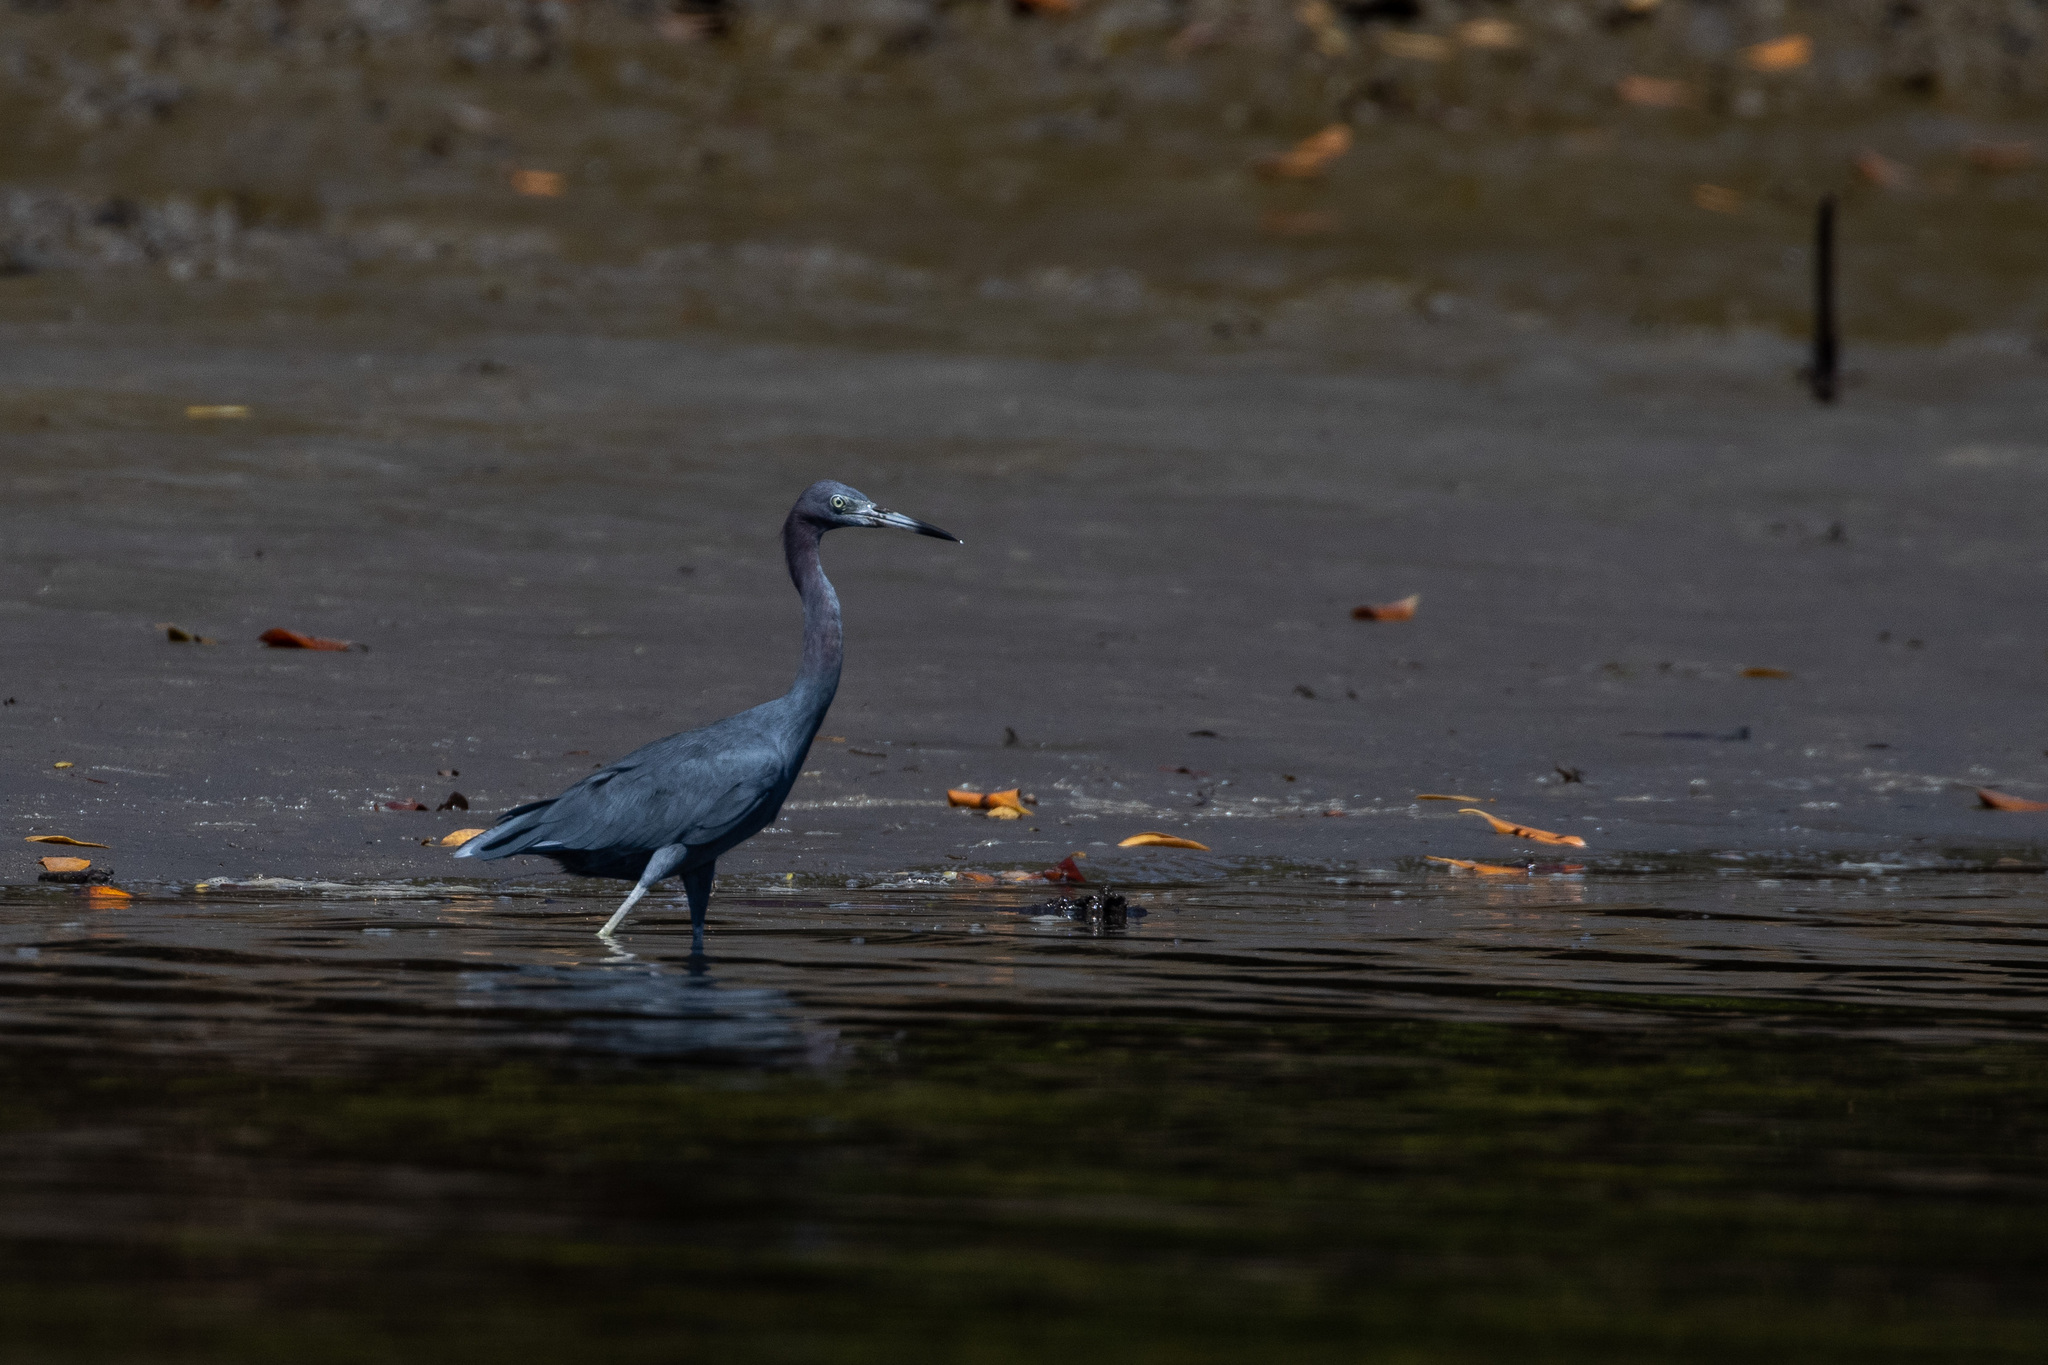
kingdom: Animalia
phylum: Chordata
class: Aves
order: Pelecaniformes
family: Ardeidae
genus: Egretta
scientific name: Egretta caerulea
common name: Little blue heron
